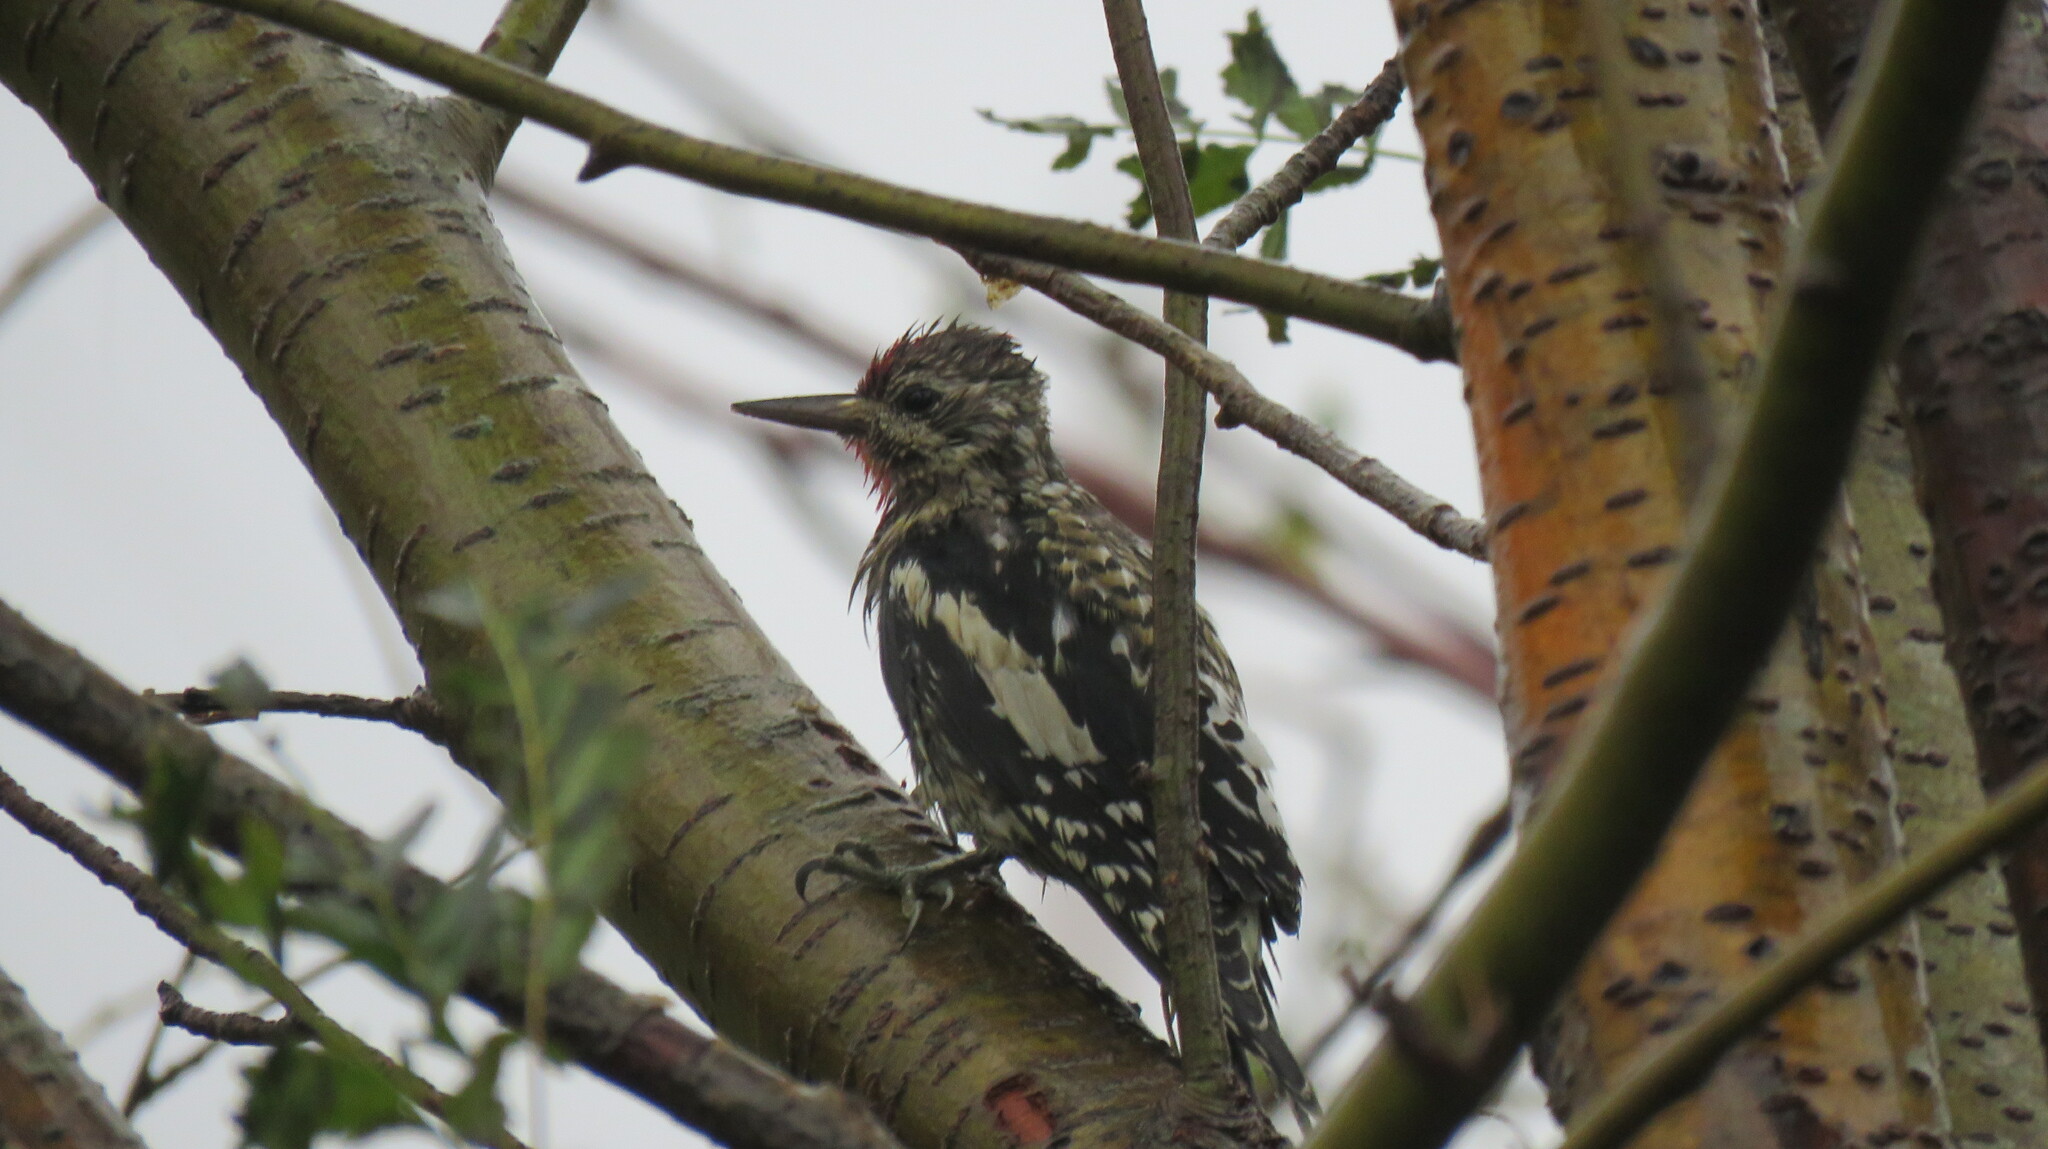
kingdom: Animalia
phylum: Chordata
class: Aves
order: Piciformes
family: Picidae
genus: Sphyrapicus
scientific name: Sphyrapicus varius
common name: Yellow-bellied sapsucker
